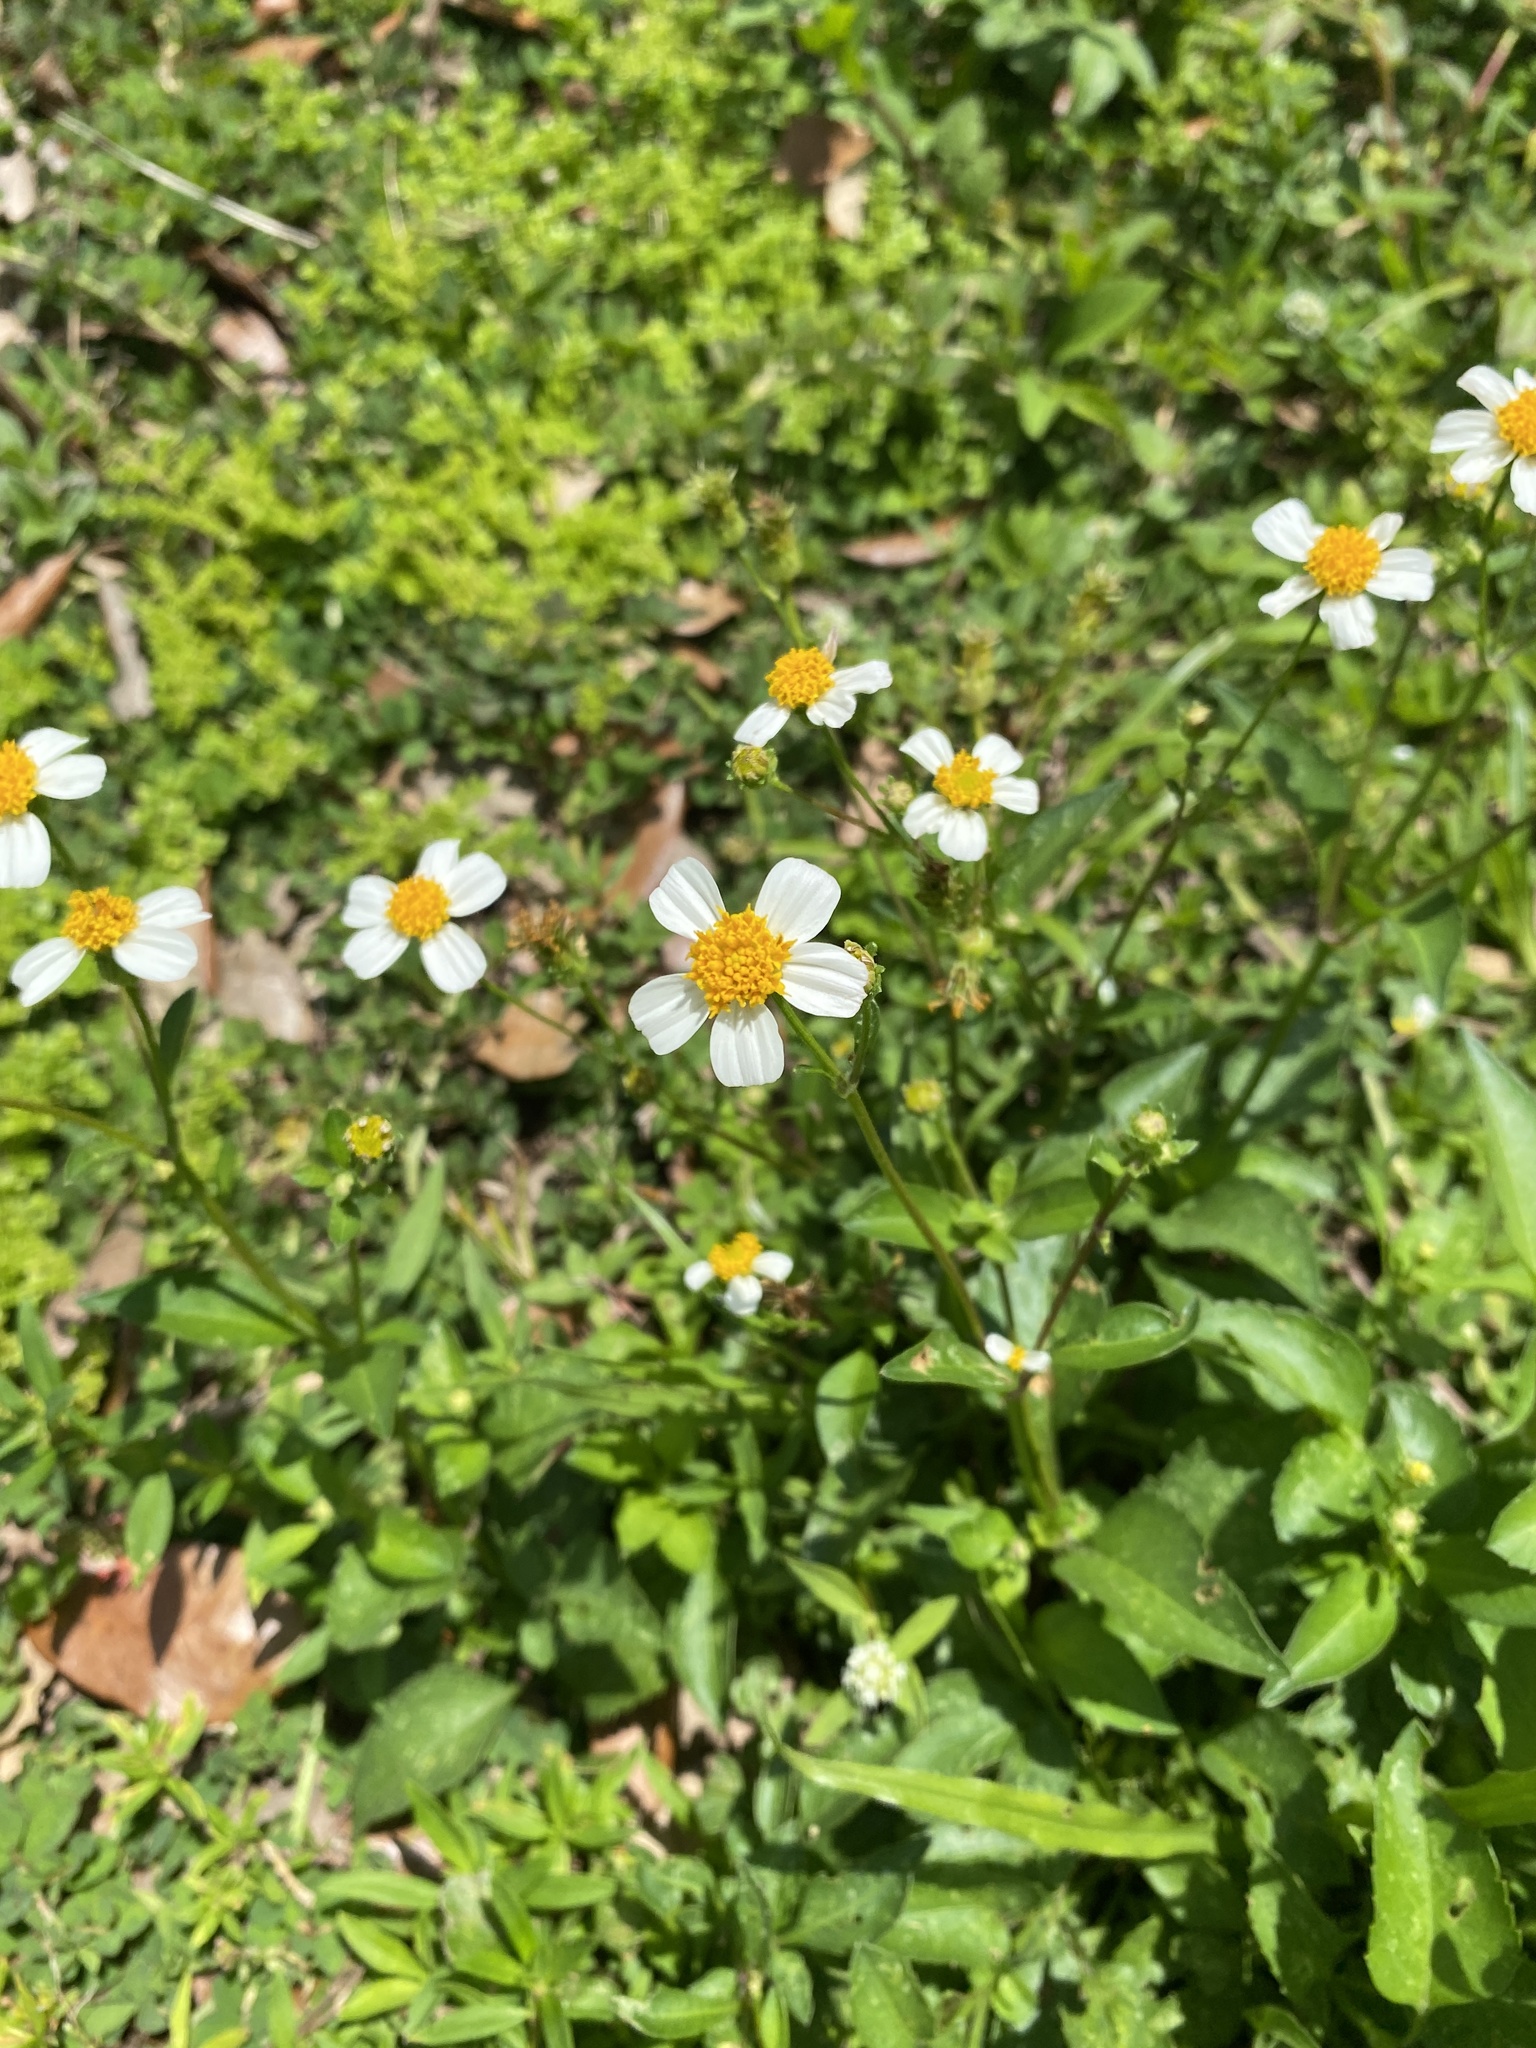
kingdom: Plantae
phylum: Tracheophyta
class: Magnoliopsida
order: Asterales
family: Asteraceae
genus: Bidens
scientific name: Bidens alba
